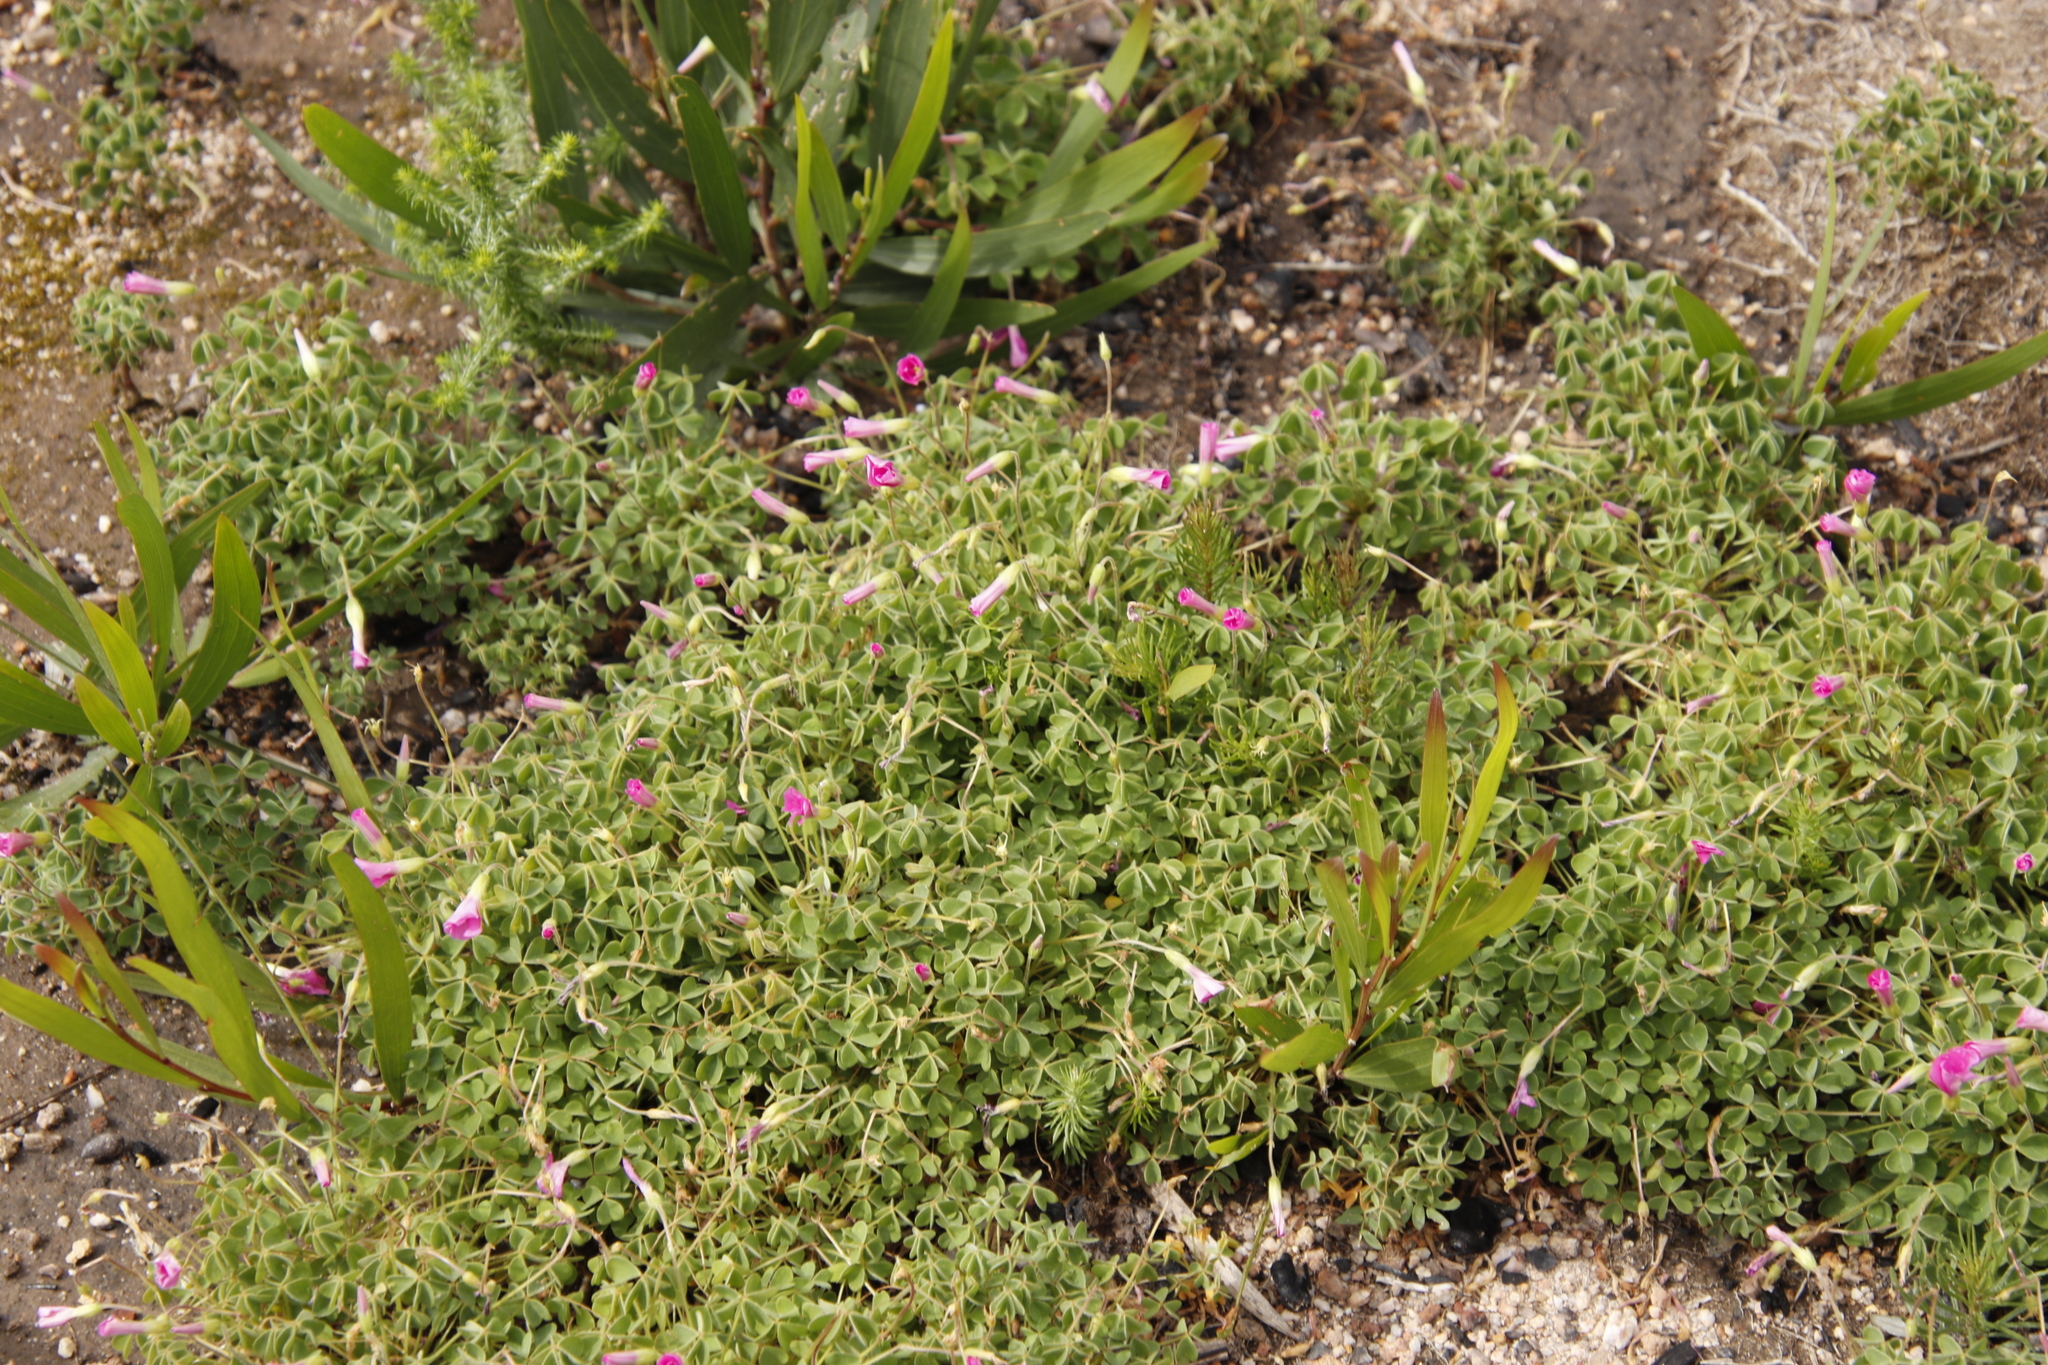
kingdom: Plantae
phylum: Tracheophyta
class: Magnoliopsida
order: Oxalidales
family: Oxalidaceae
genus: Oxalis
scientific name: Oxalis lanata
